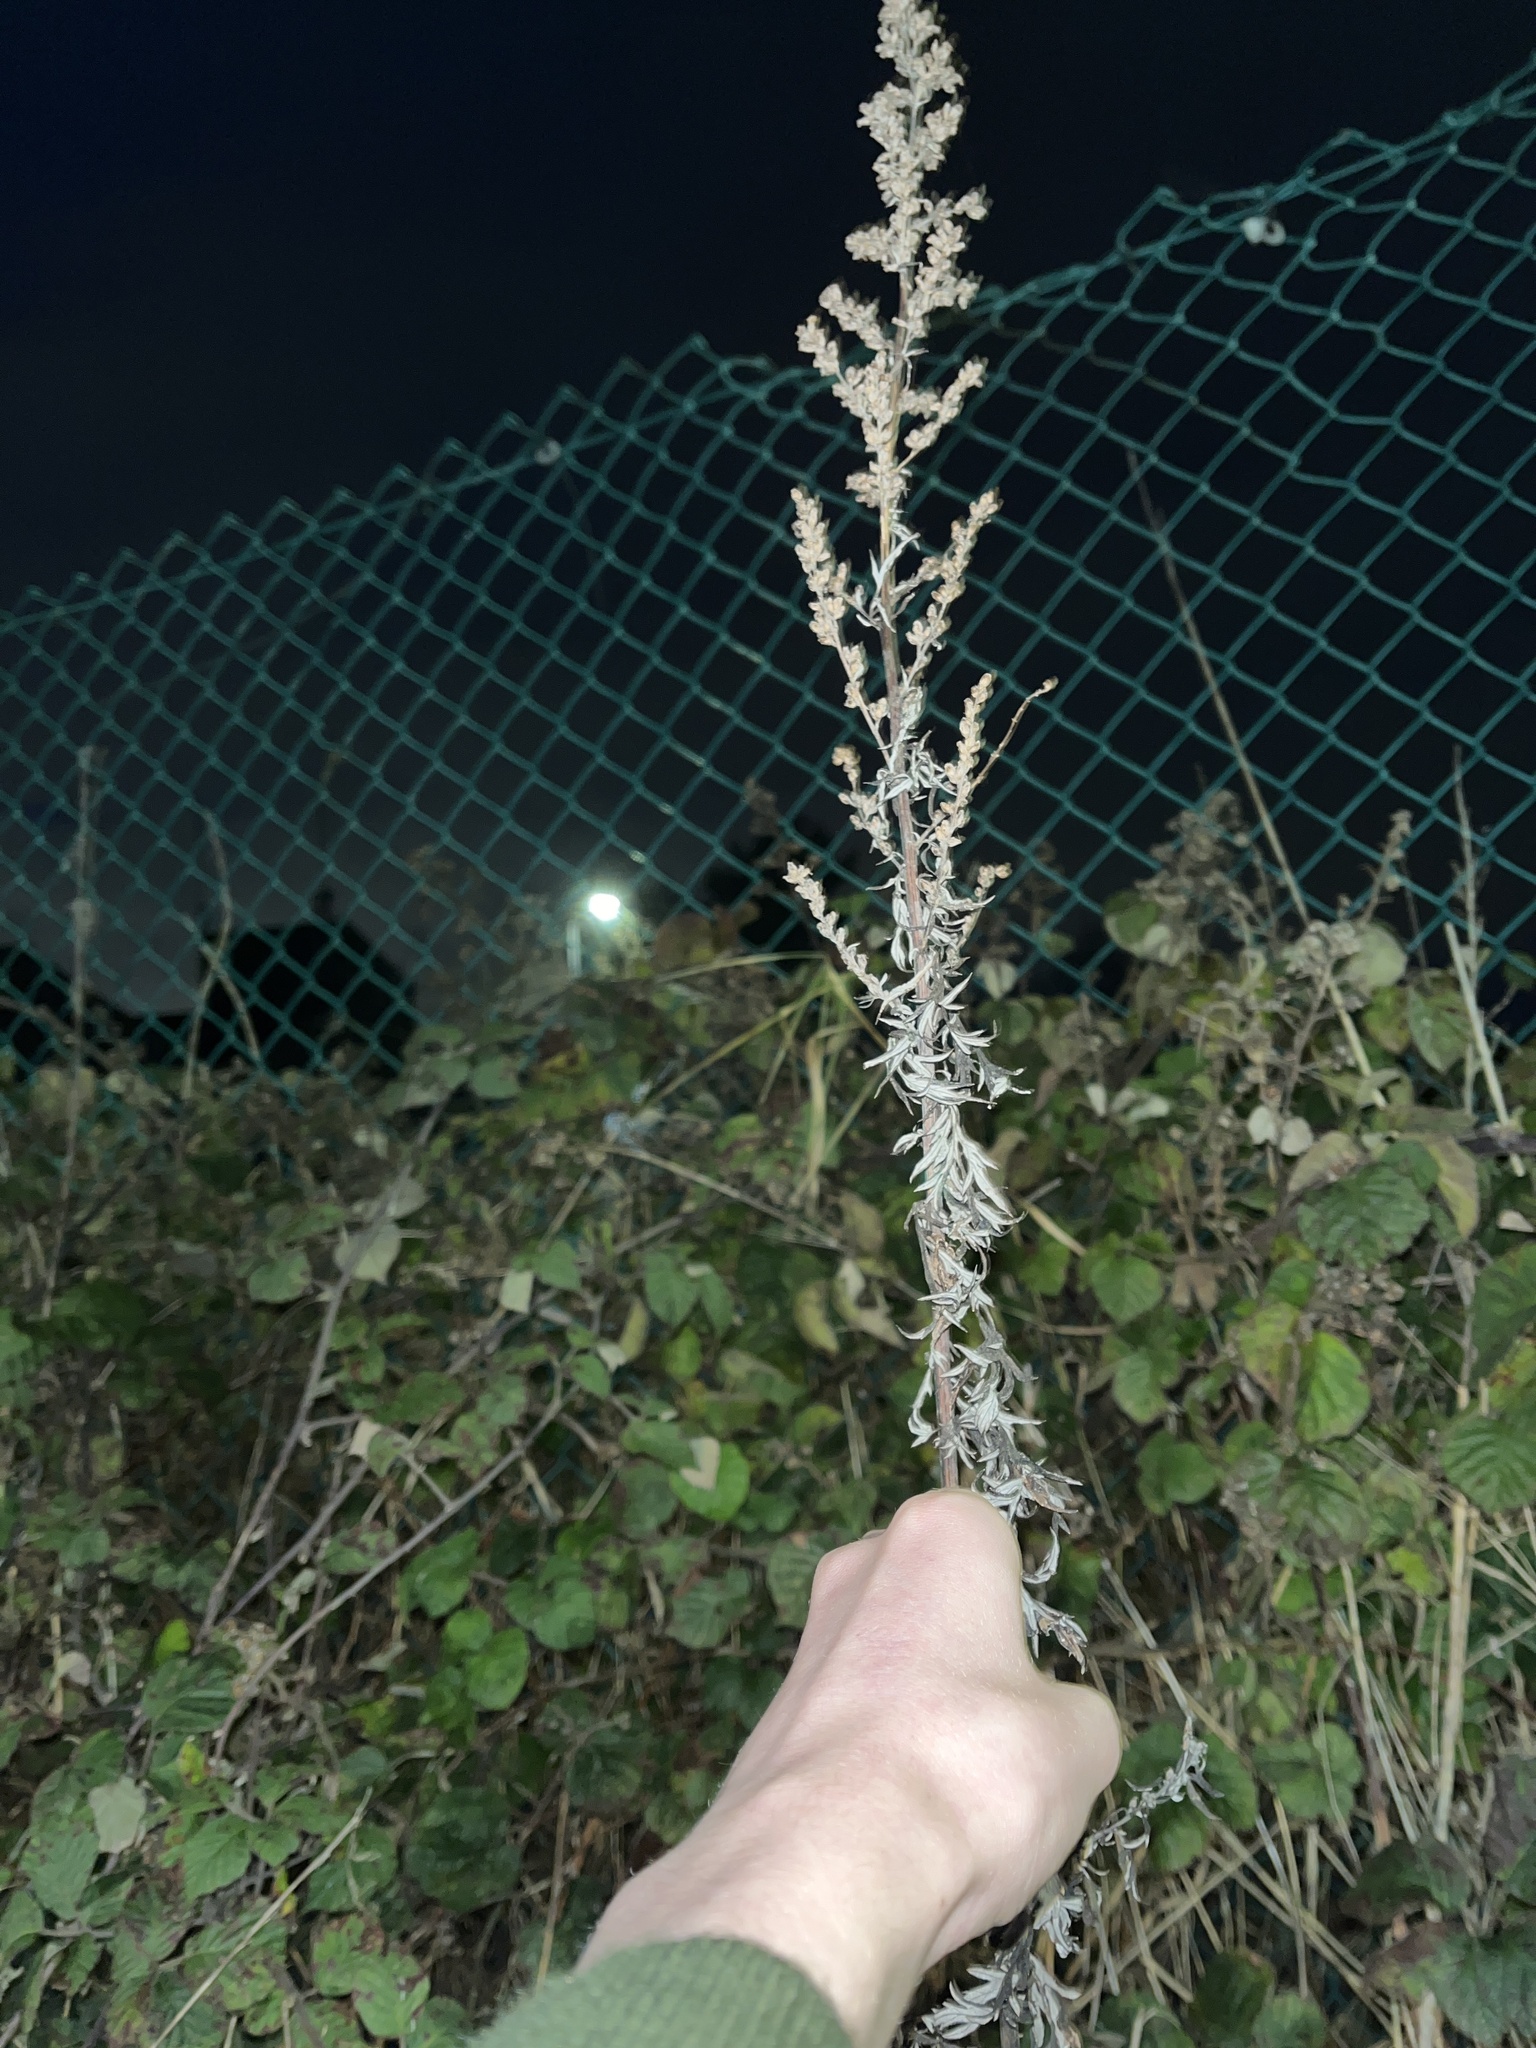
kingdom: Plantae
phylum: Tracheophyta
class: Magnoliopsida
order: Asterales
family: Asteraceae
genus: Artemisia
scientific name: Artemisia vulgaris
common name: Mugwort
